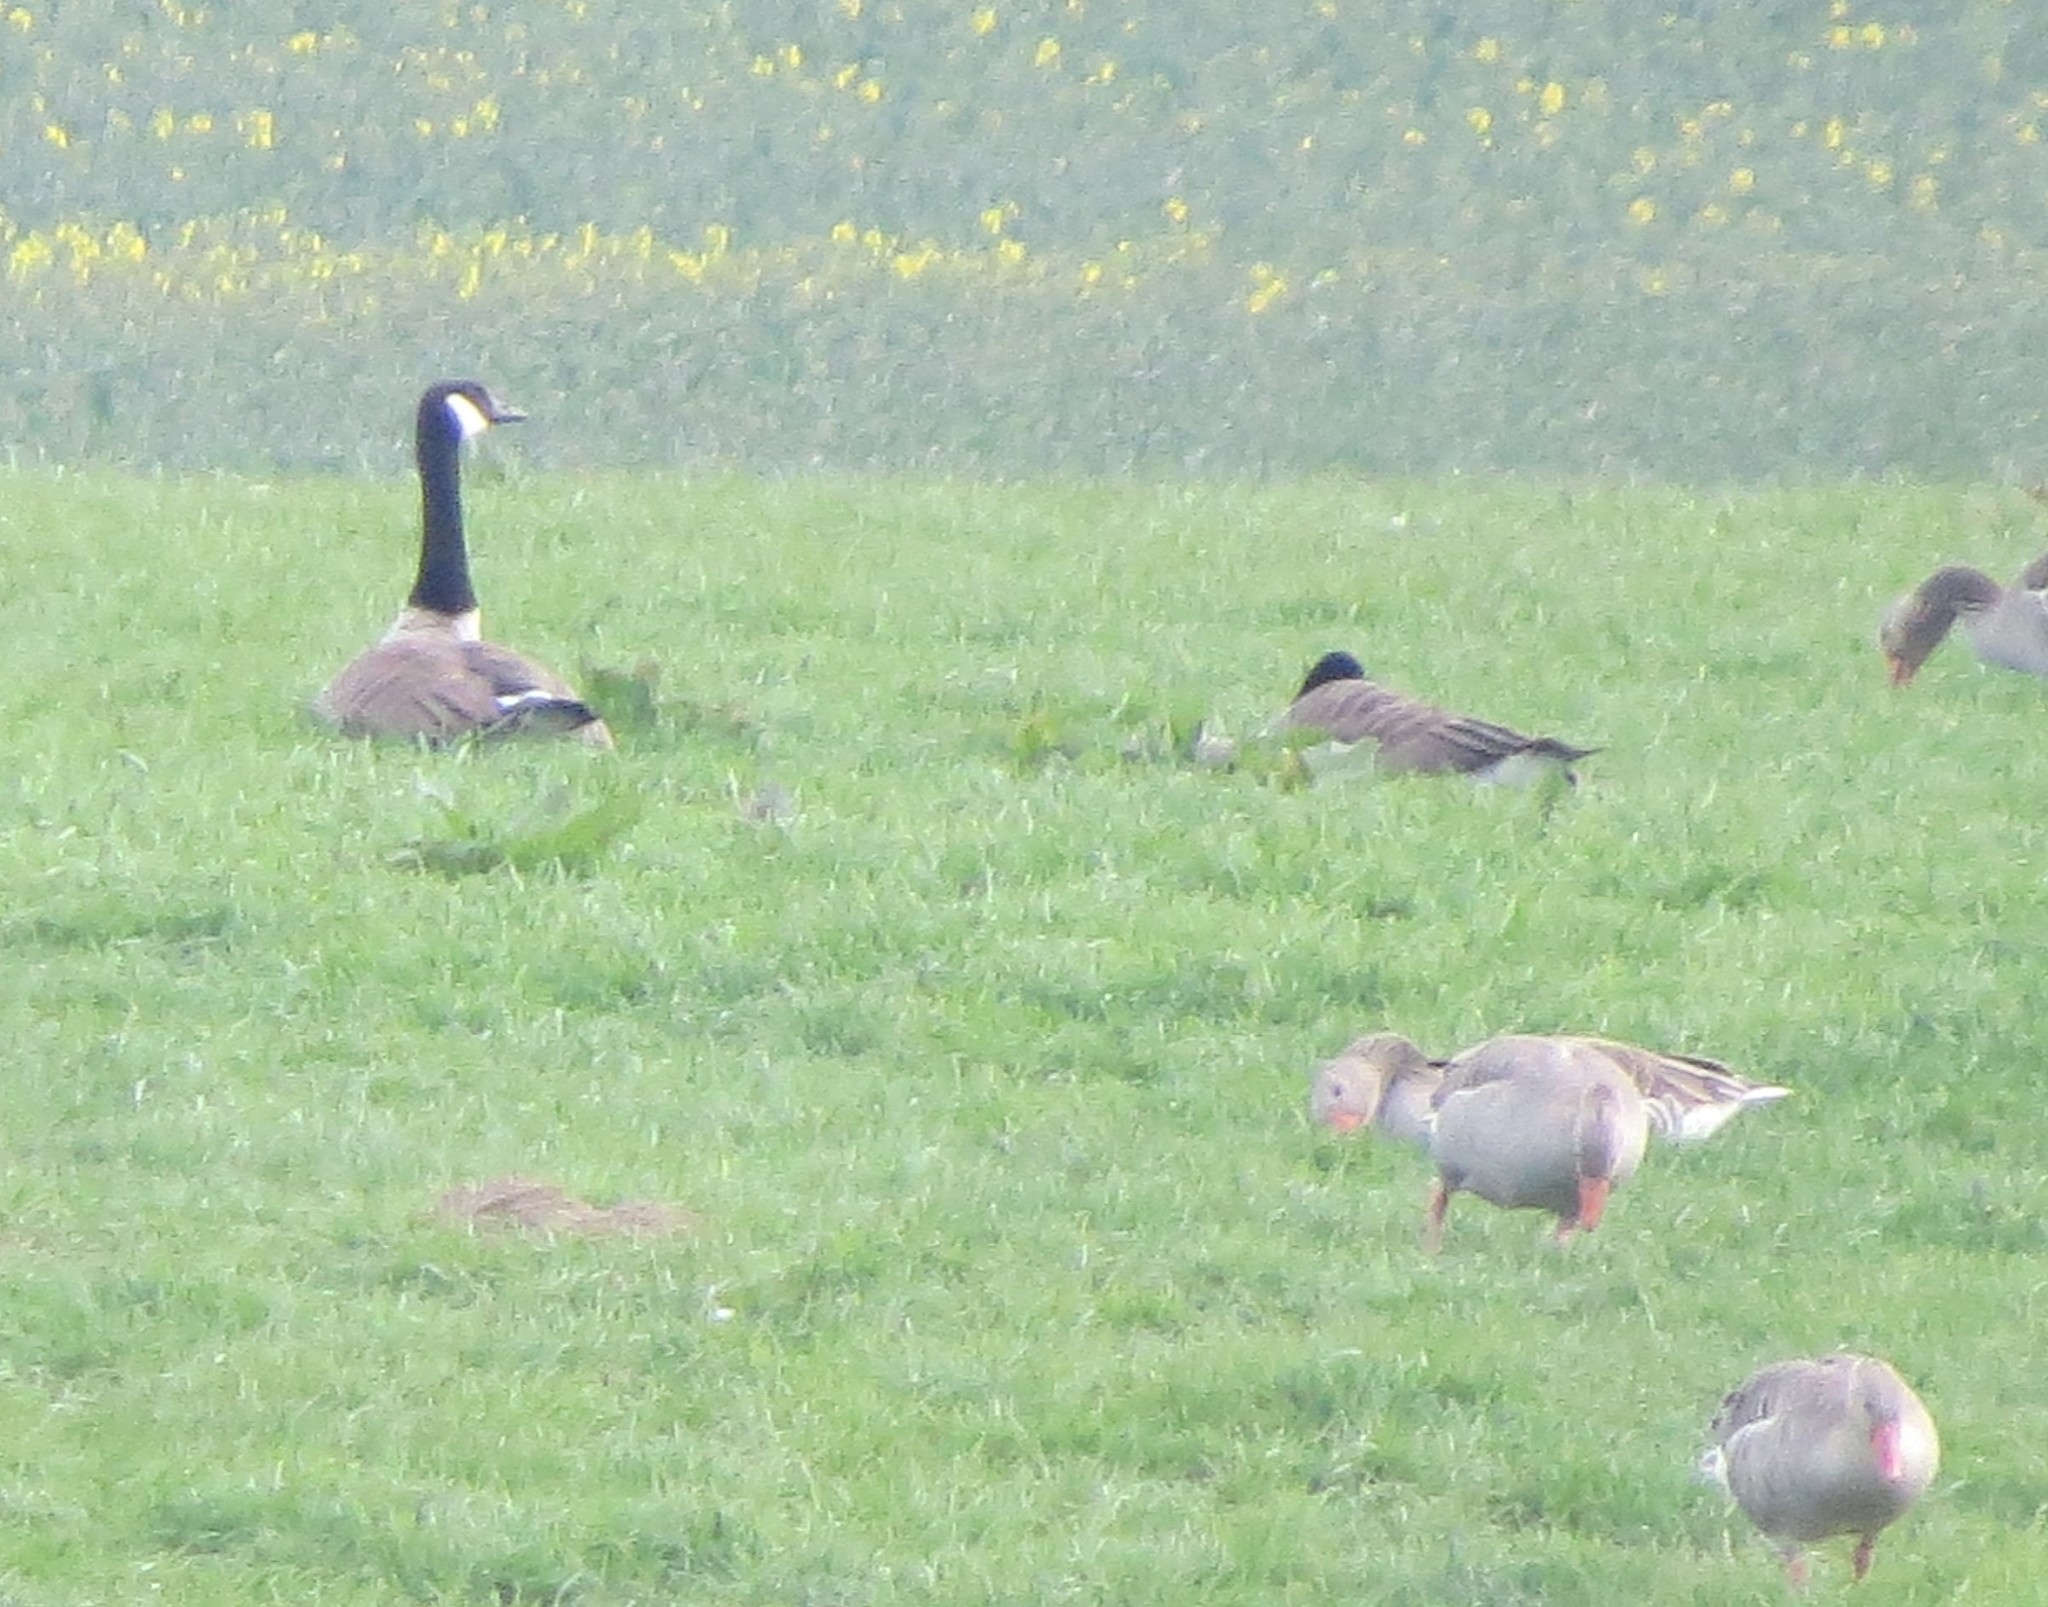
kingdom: Animalia
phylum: Chordata
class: Aves
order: Anseriformes
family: Anatidae
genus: Branta
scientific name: Branta canadensis
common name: Canada goose
